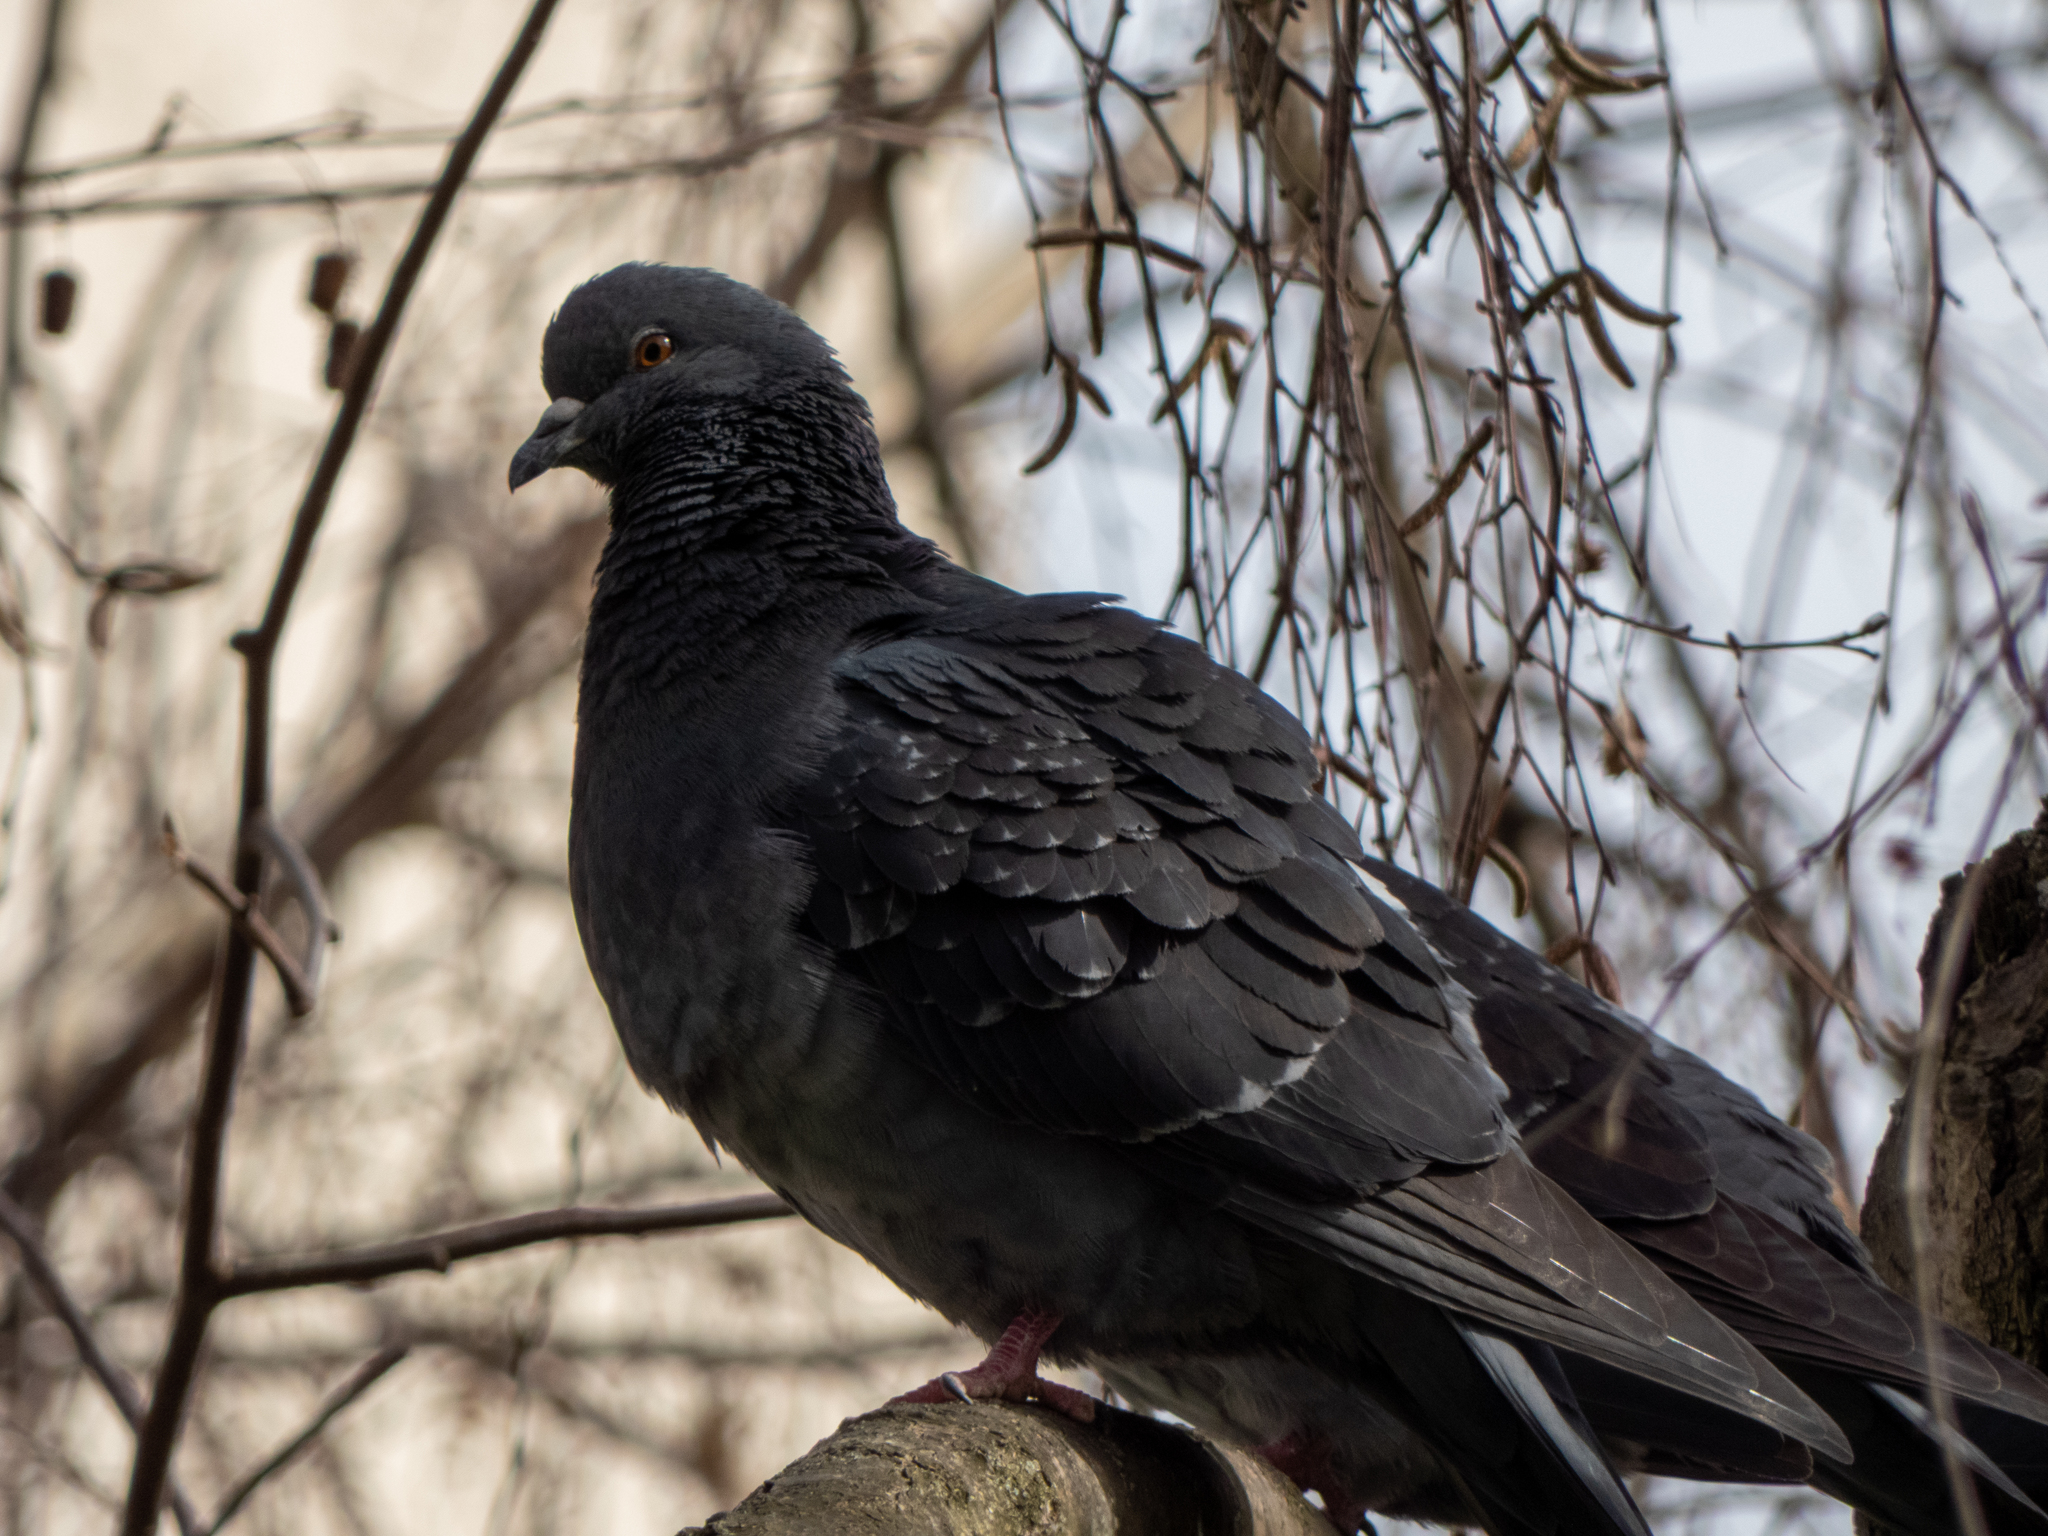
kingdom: Animalia
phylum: Chordata
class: Aves
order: Columbiformes
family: Columbidae
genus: Columba
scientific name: Columba livia
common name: Rock pigeon
